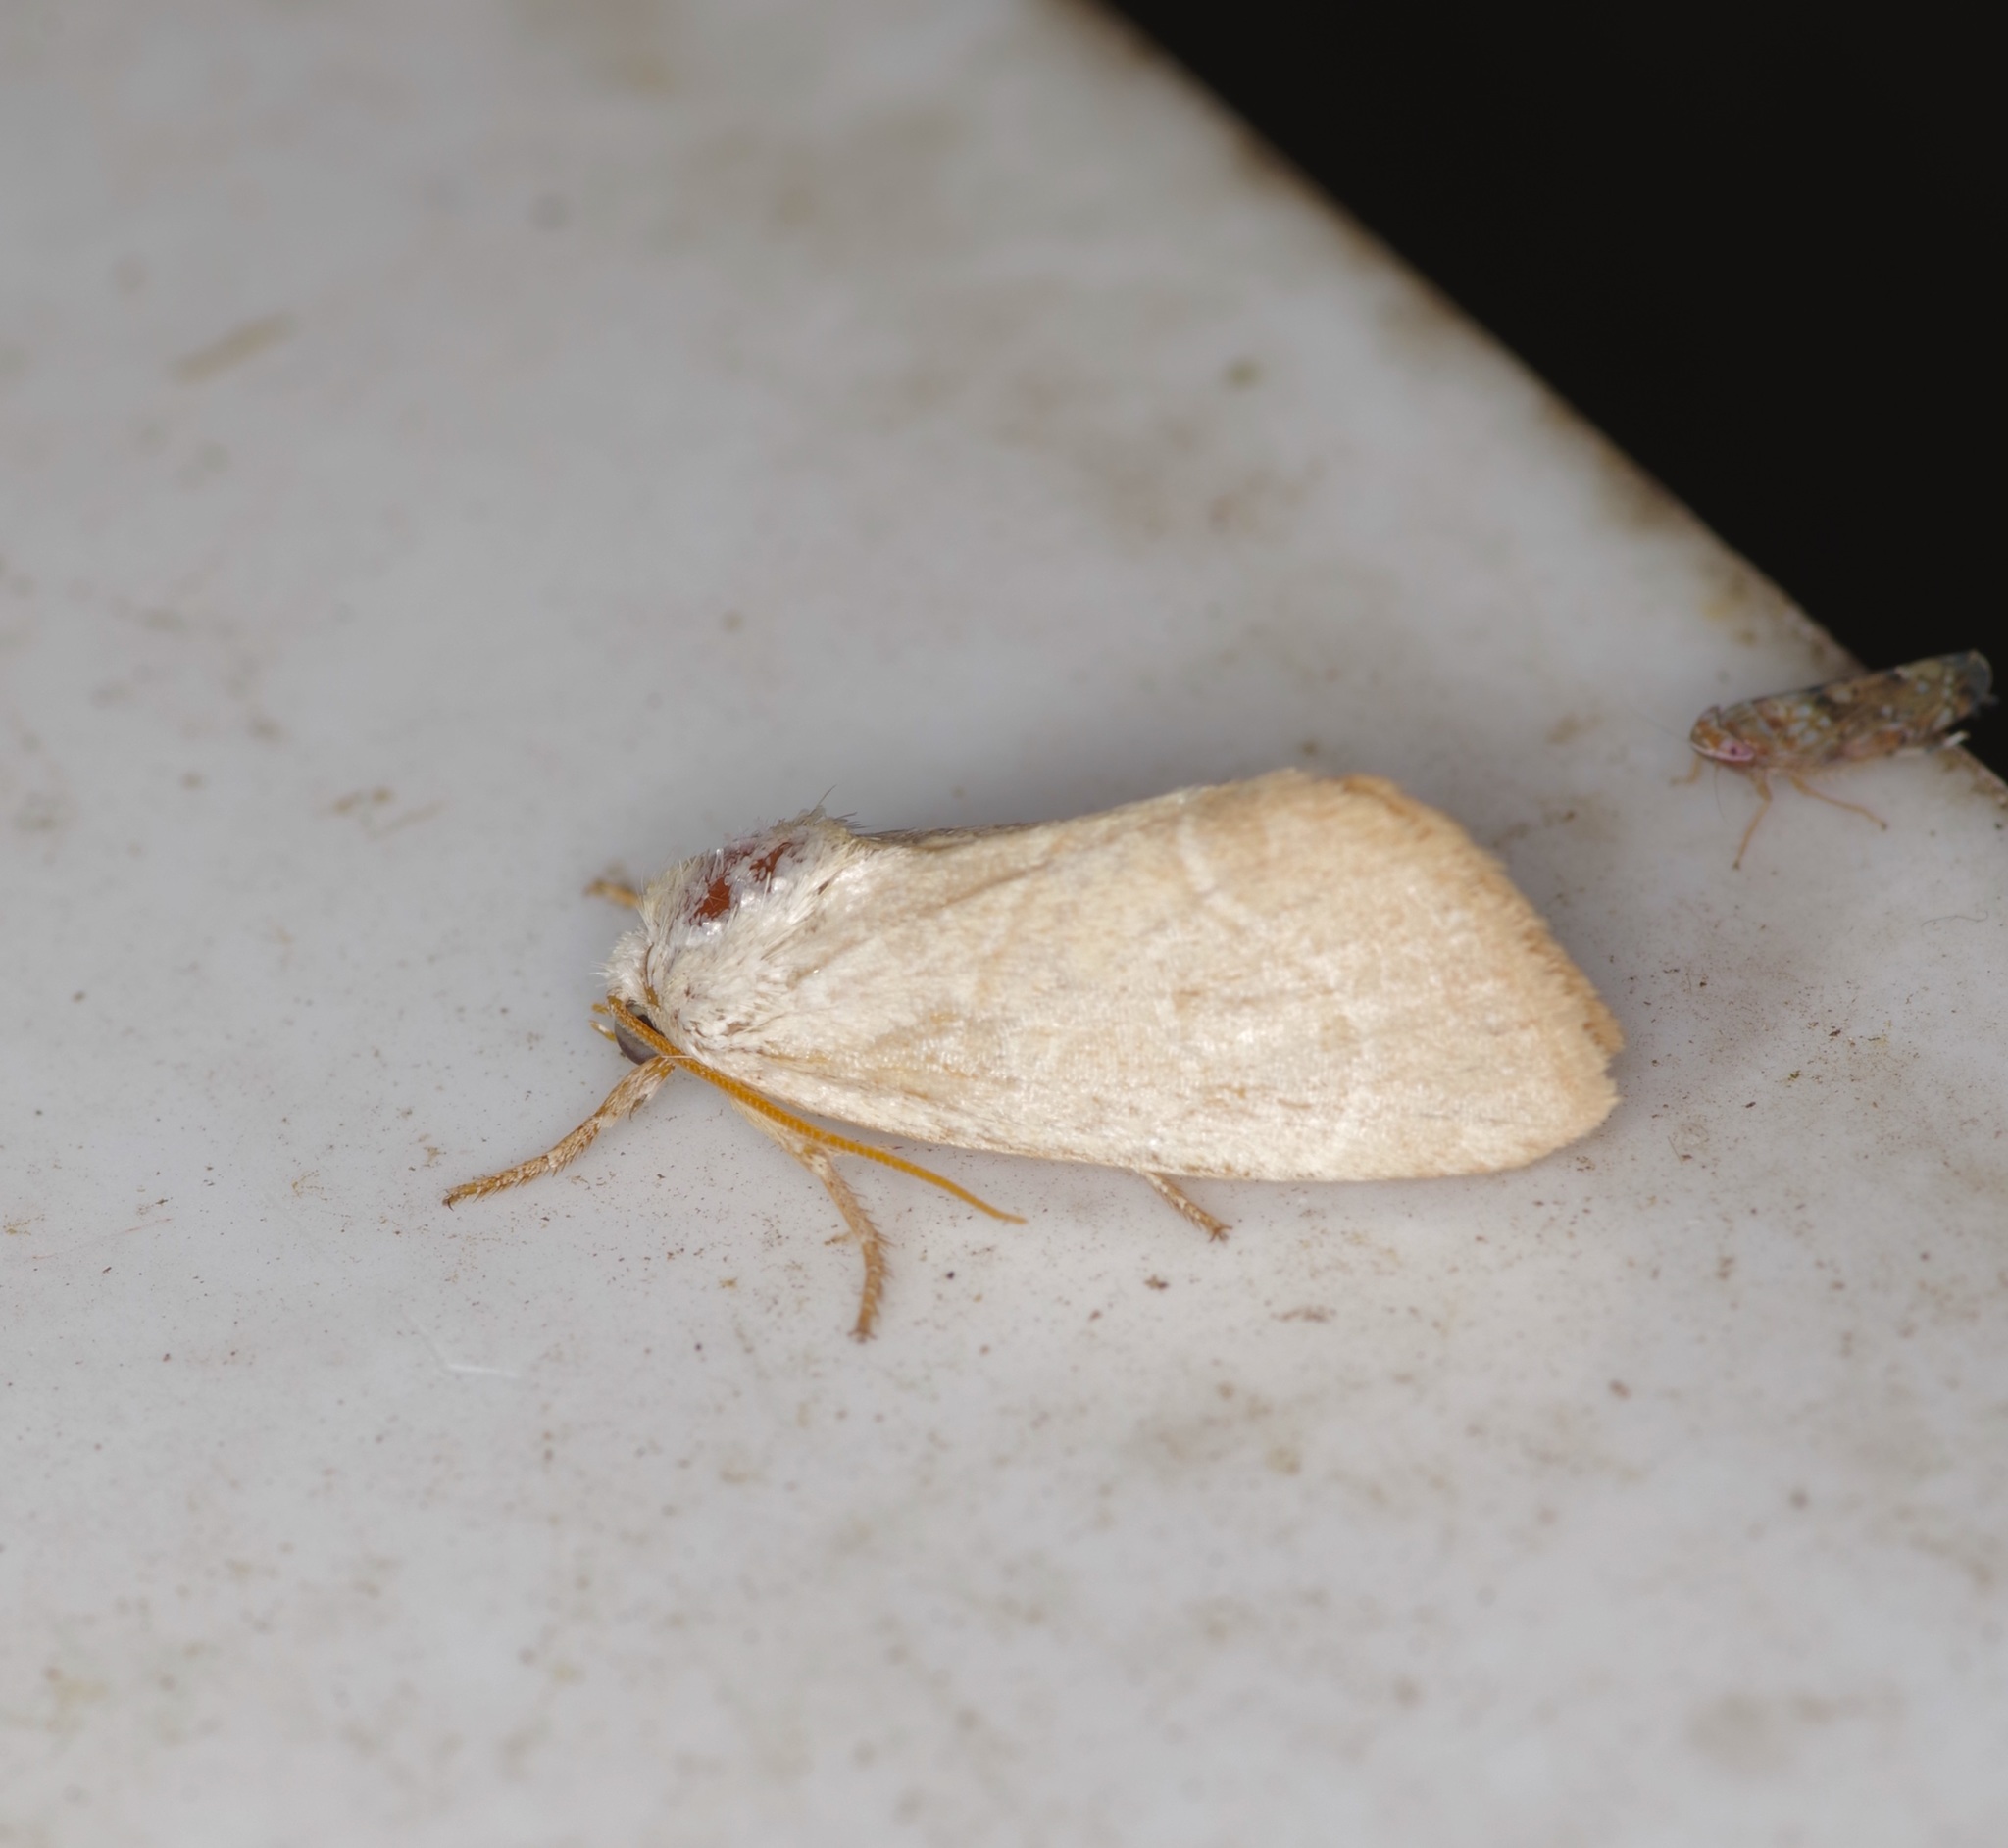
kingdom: Animalia
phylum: Arthropoda
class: Insecta
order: Lepidoptera
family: Noctuidae
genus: Cosmia
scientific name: Cosmia calami
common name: American dun-bar moth
